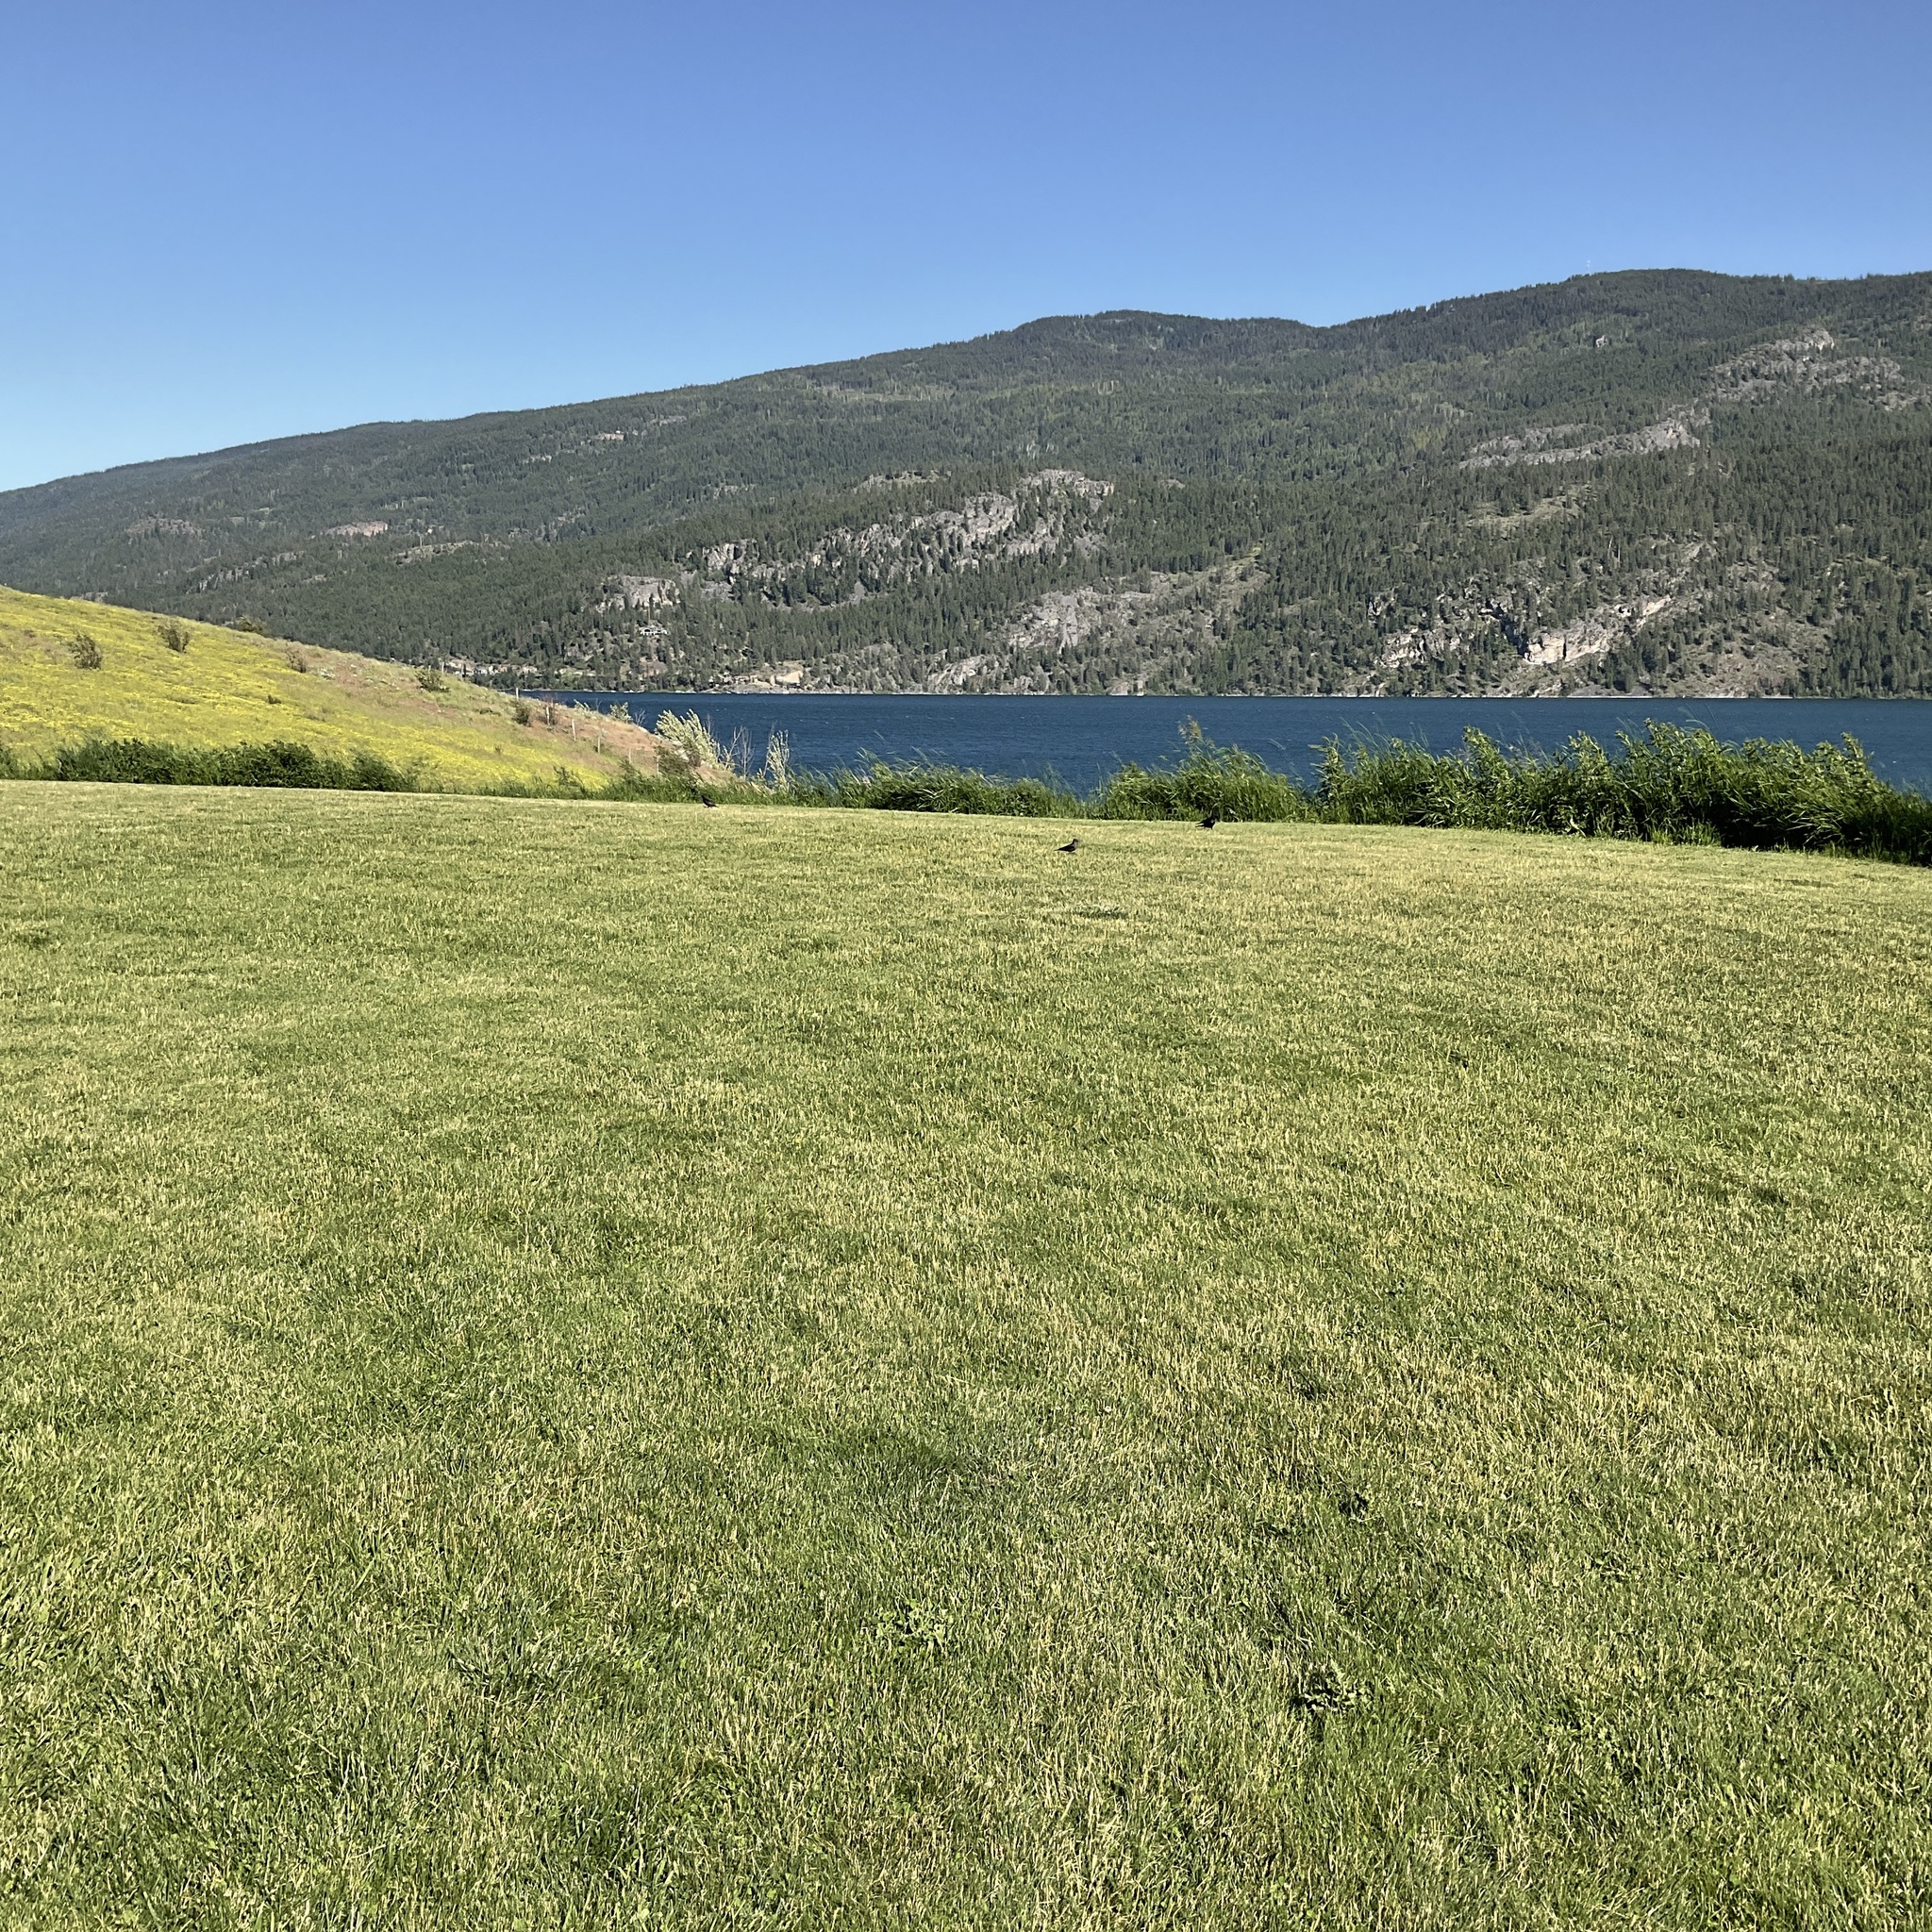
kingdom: Animalia
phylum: Chordata
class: Aves
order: Passeriformes
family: Icteridae
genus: Euphagus
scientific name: Euphagus cyanocephalus
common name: Brewer's blackbird
